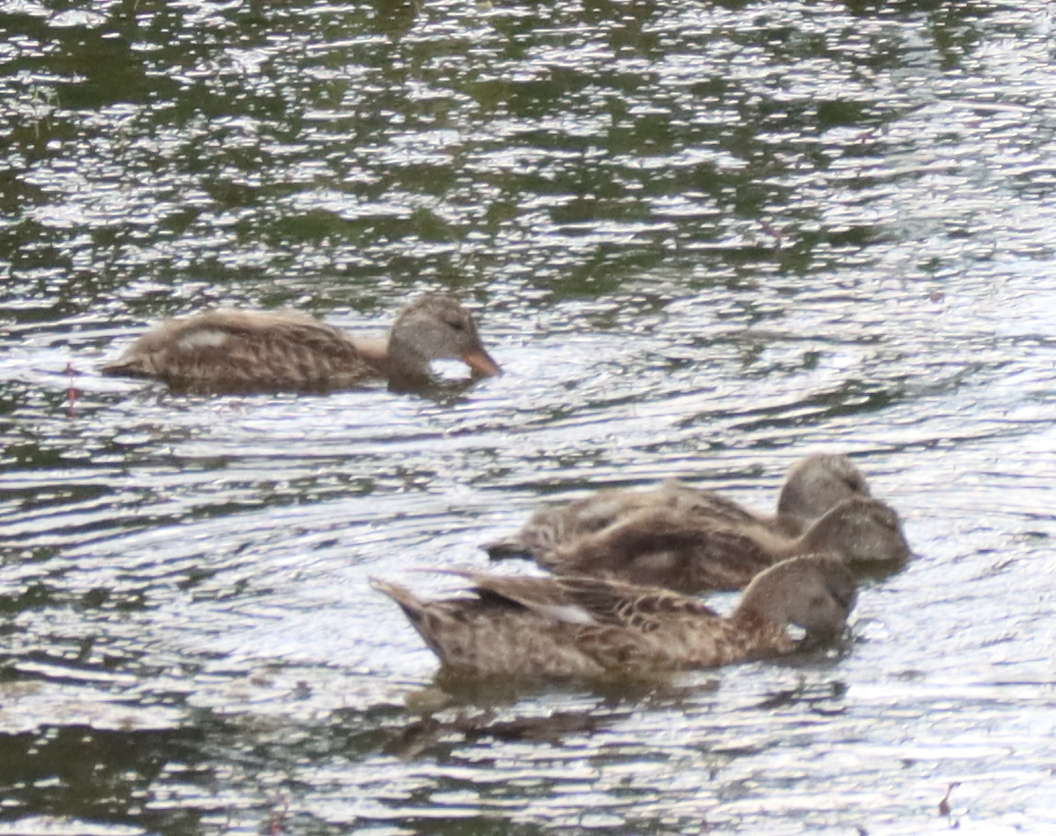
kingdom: Animalia
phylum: Chordata
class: Aves
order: Anseriformes
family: Anatidae
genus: Mareca
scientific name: Mareca strepera
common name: Gadwall
